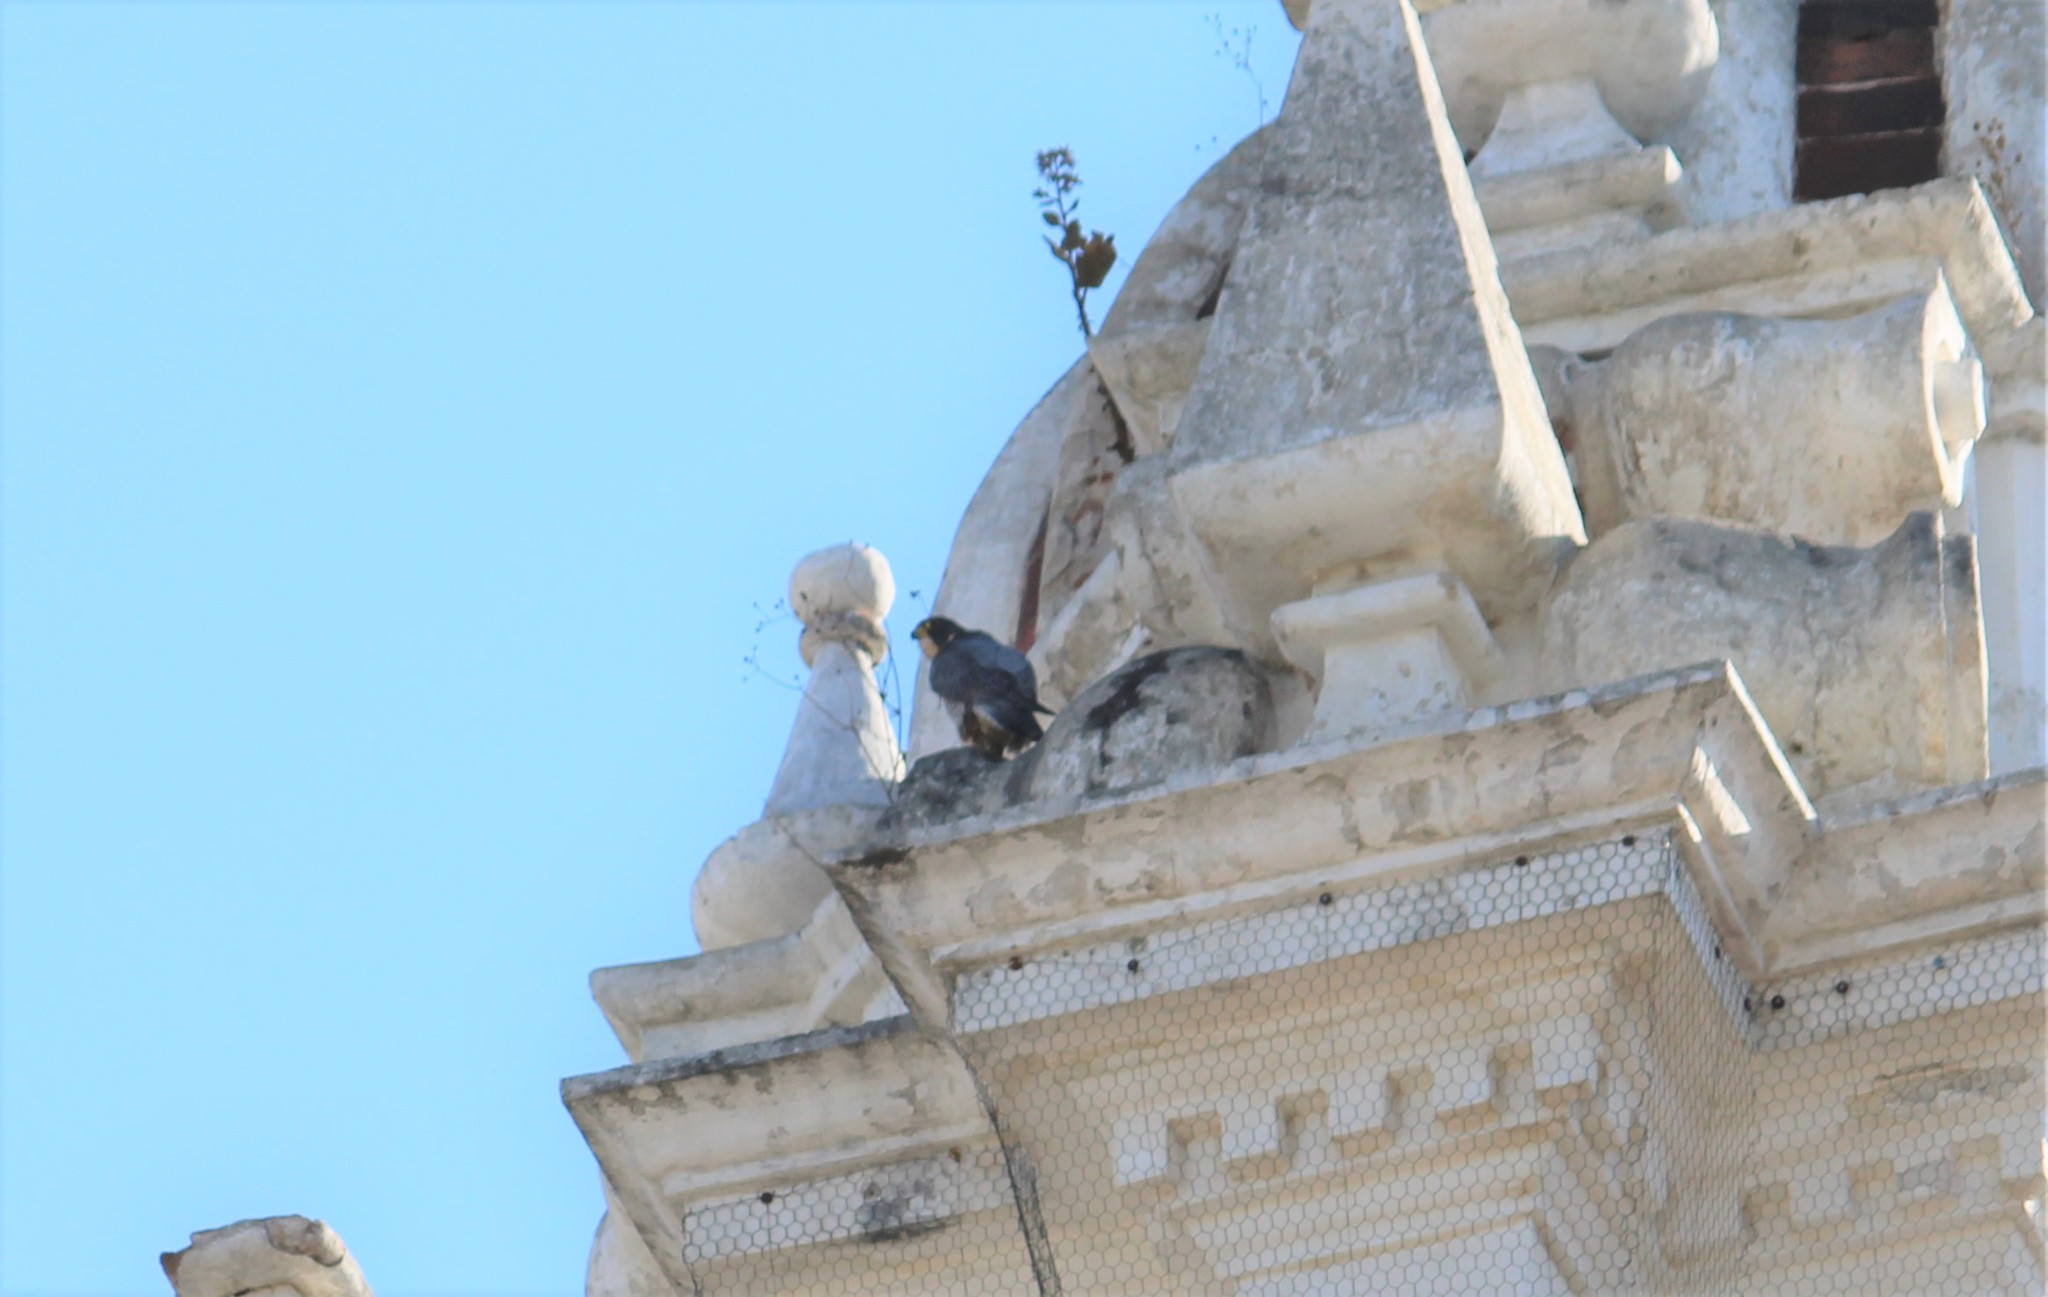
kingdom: Animalia
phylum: Chordata
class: Aves
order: Falconiformes
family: Falconidae
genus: Falco
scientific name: Falco peregrinus
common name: Peregrine falcon
